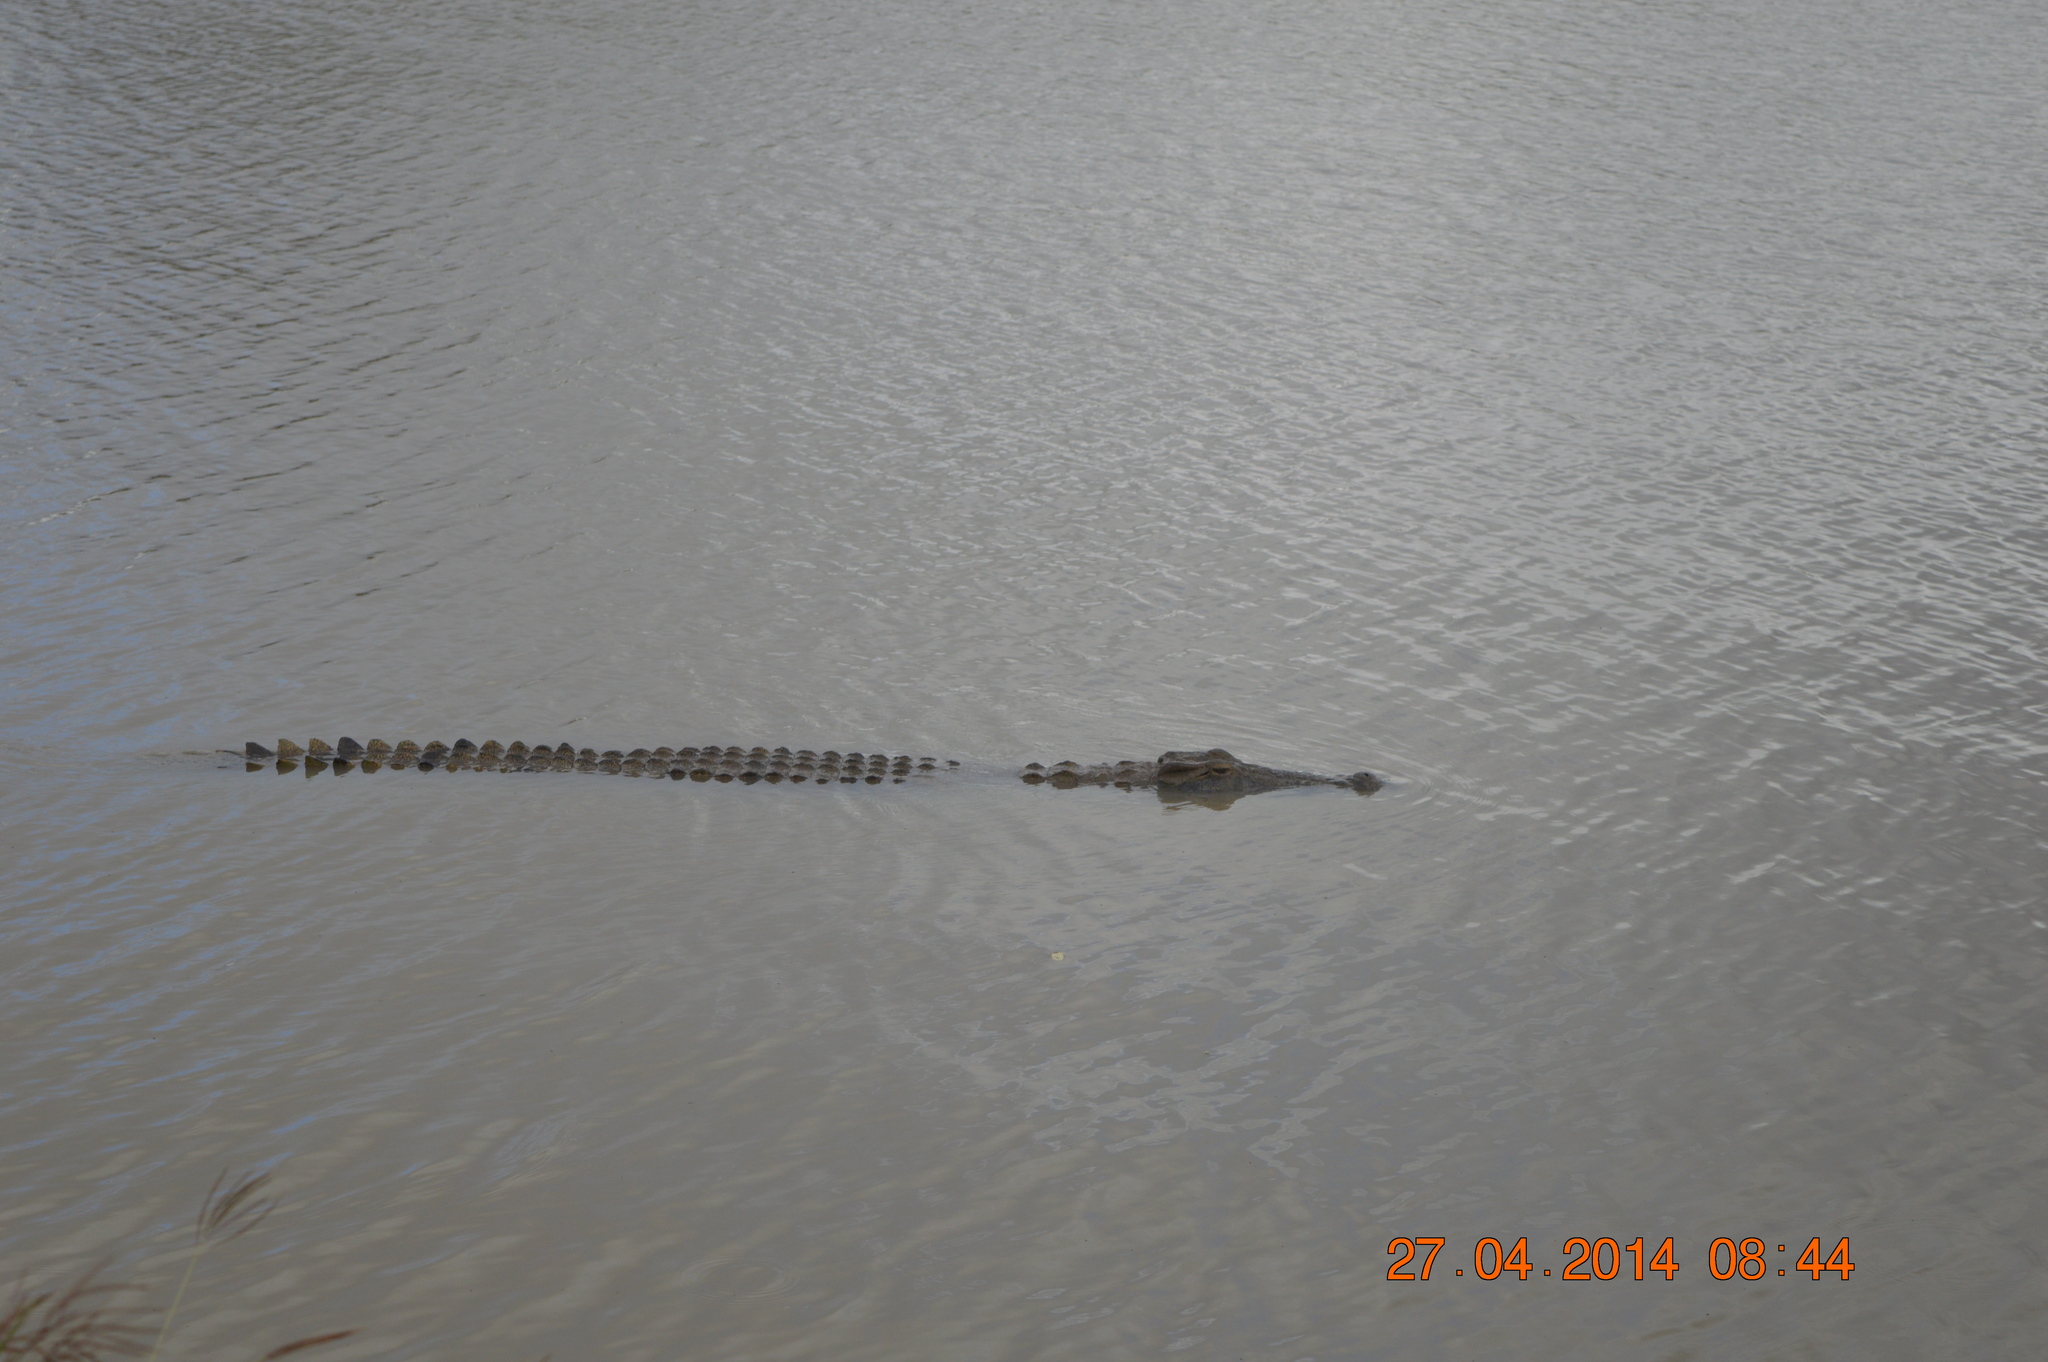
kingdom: Animalia
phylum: Chordata
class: Crocodylia
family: Crocodylidae
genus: Crocodylus
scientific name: Crocodylus niloticus
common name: Nile crocodile
